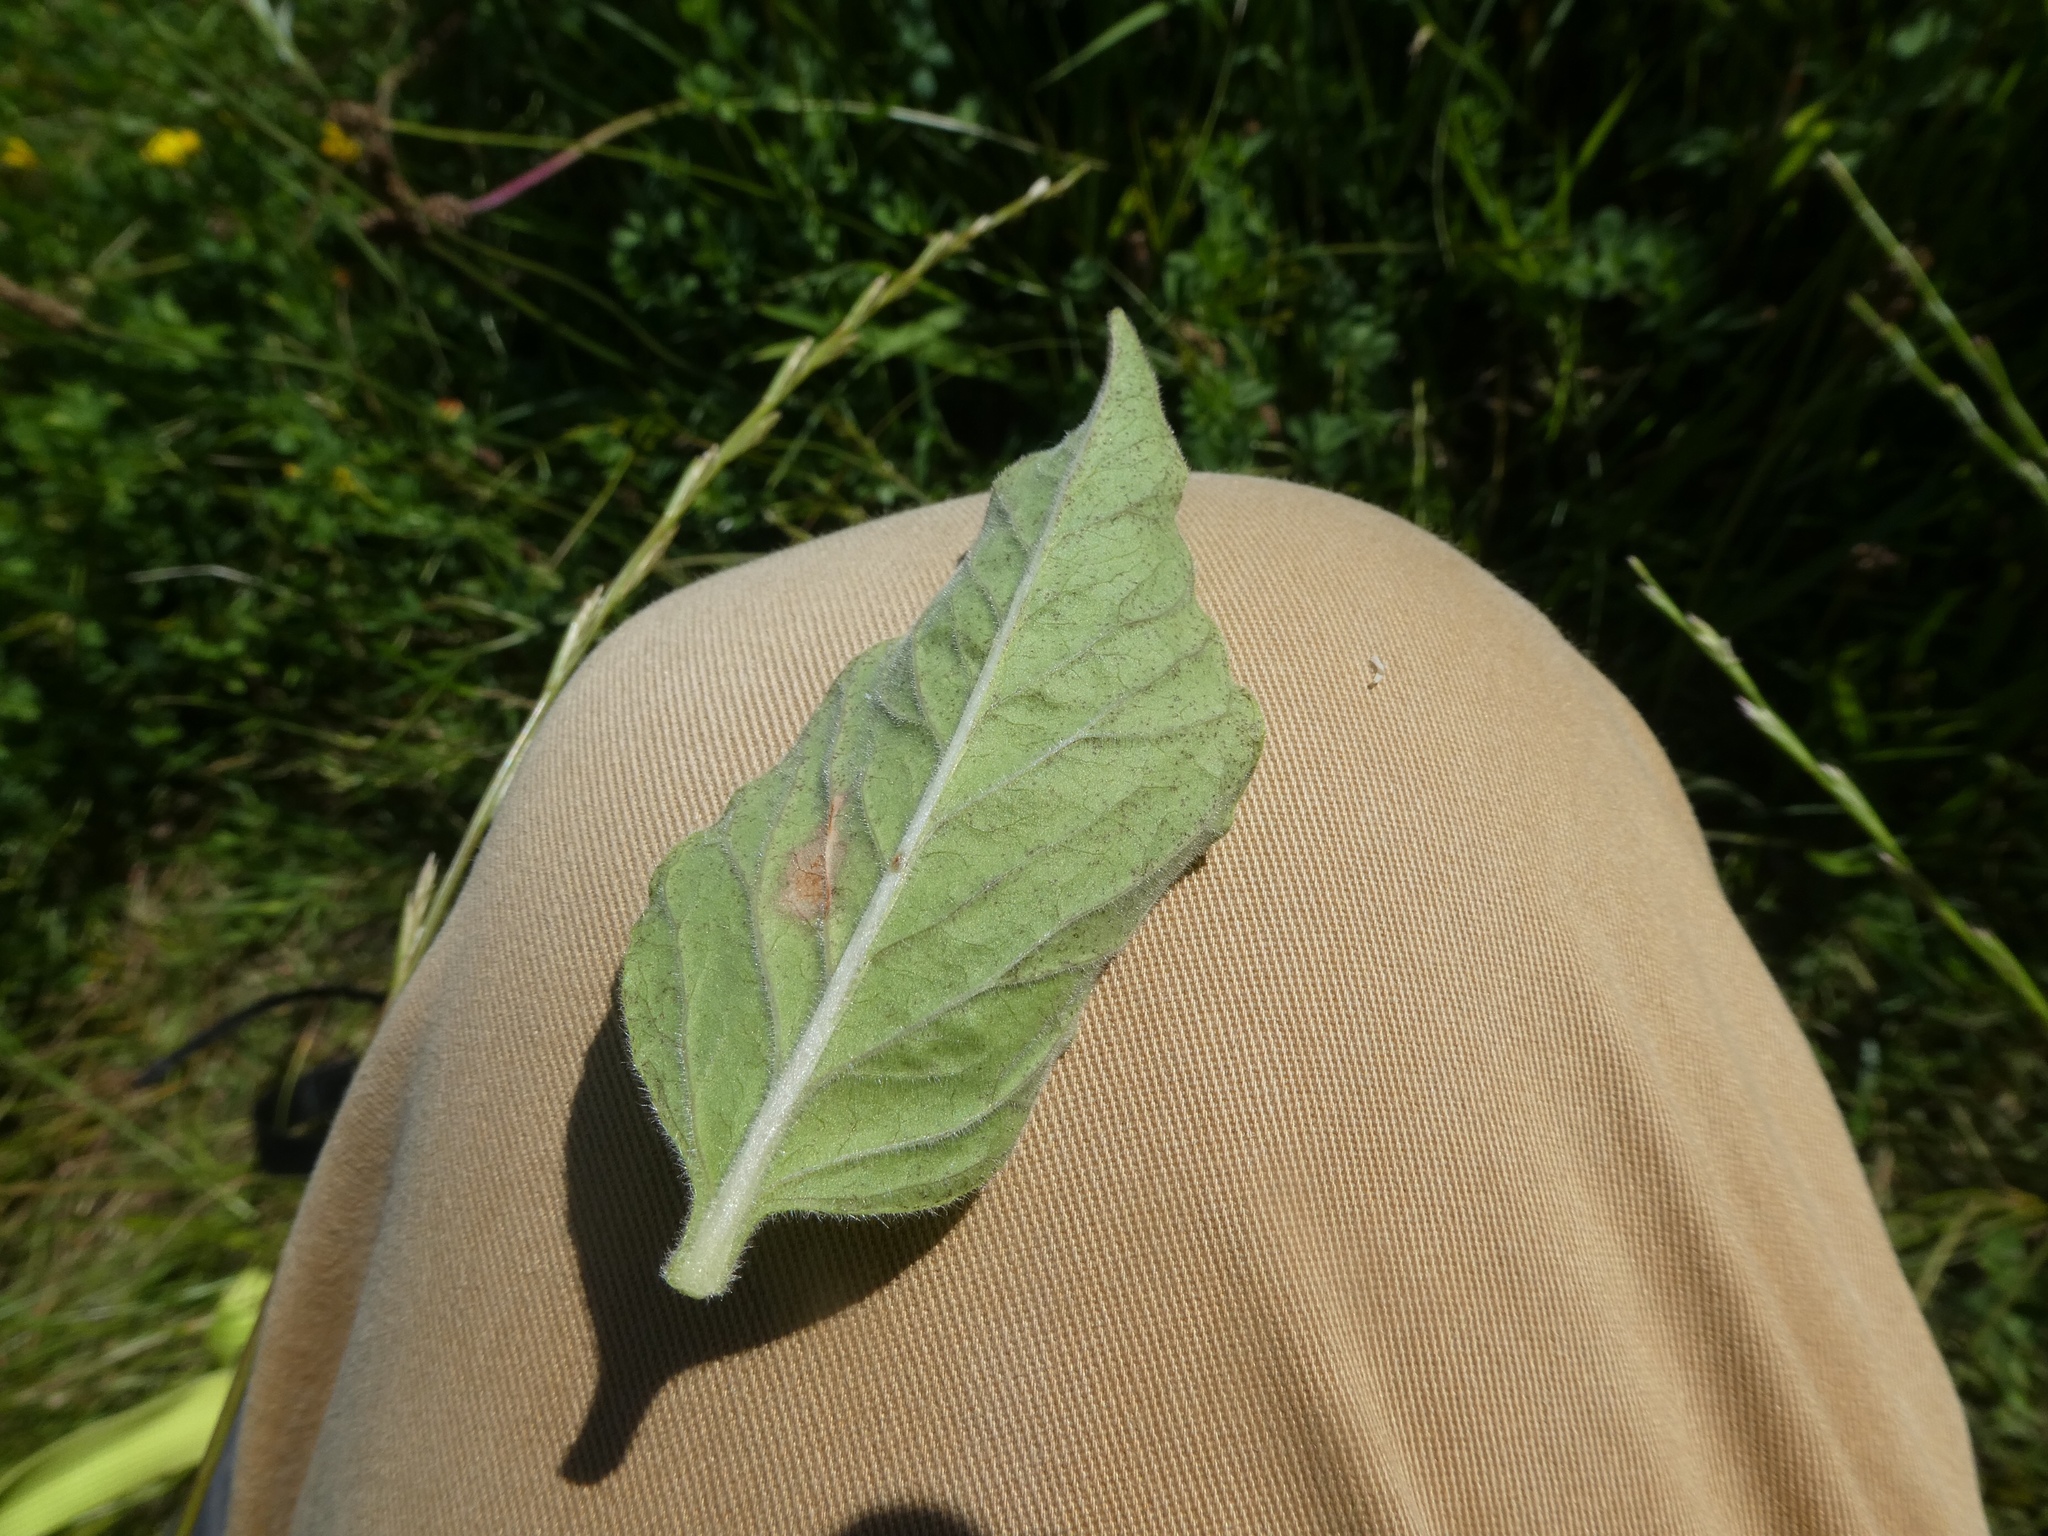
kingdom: Plantae
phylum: Tracheophyta
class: Magnoliopsida
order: Ericales
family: Primulaceae
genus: Lysimachia
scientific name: Lysimachia punctata
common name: Dotted loosestrife
